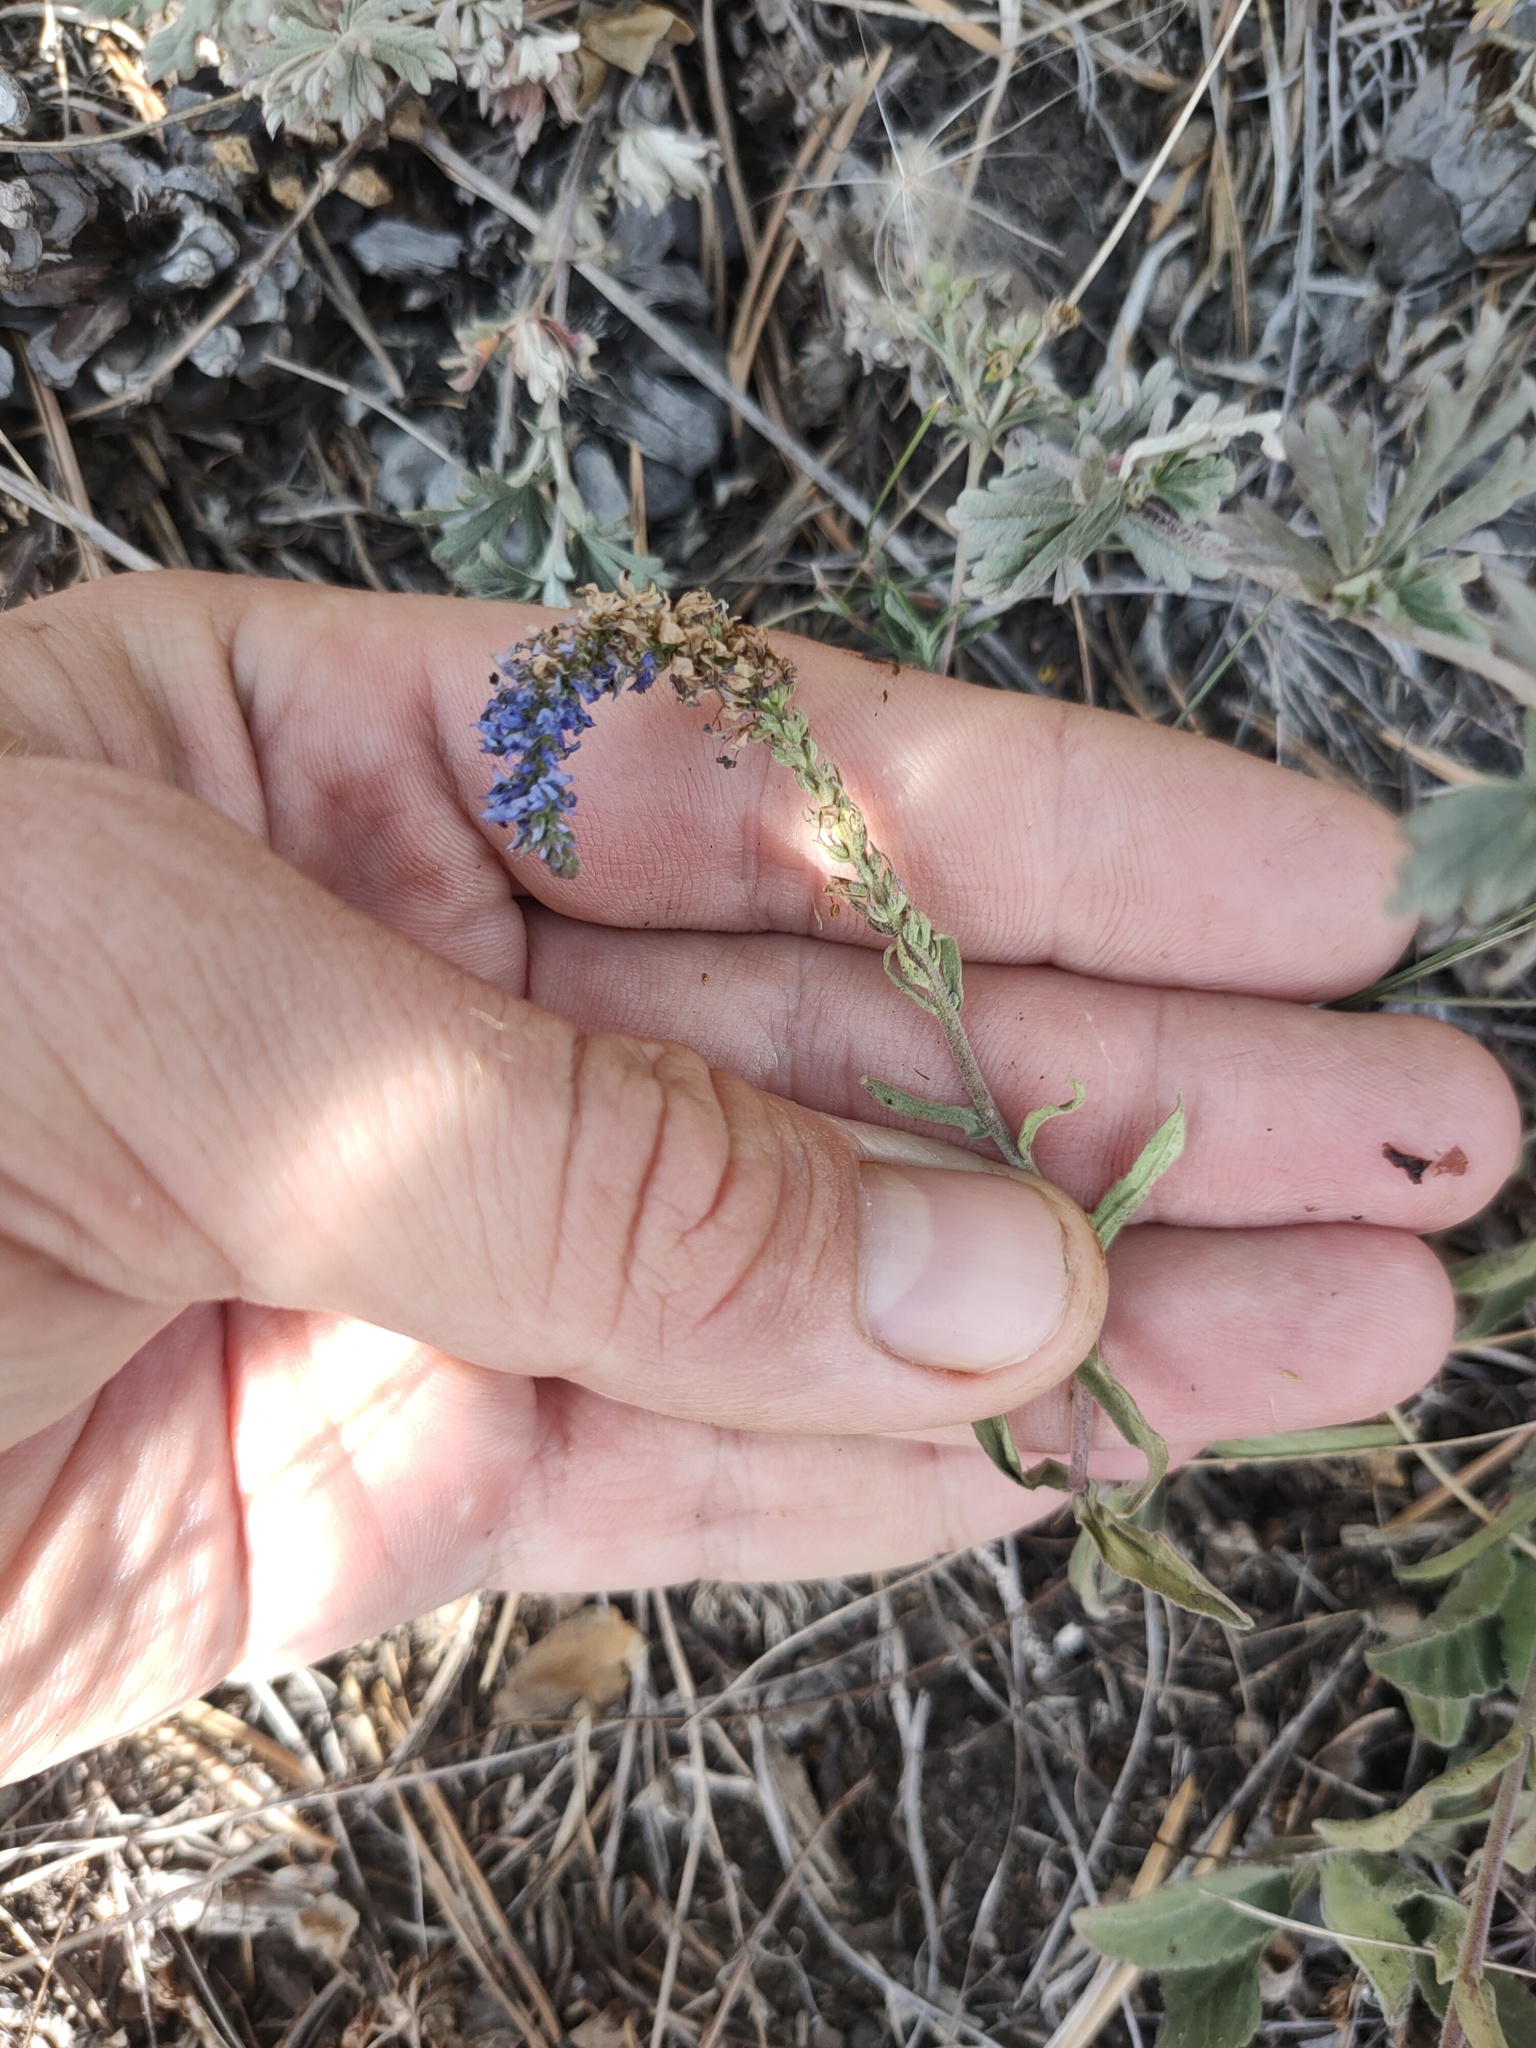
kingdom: Plantae
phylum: Tracheophyta
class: Magnoliopsida
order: Lamiales
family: Plantaginaceae
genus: Veronica
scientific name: Veronica spicata
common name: Spiked speedwell
